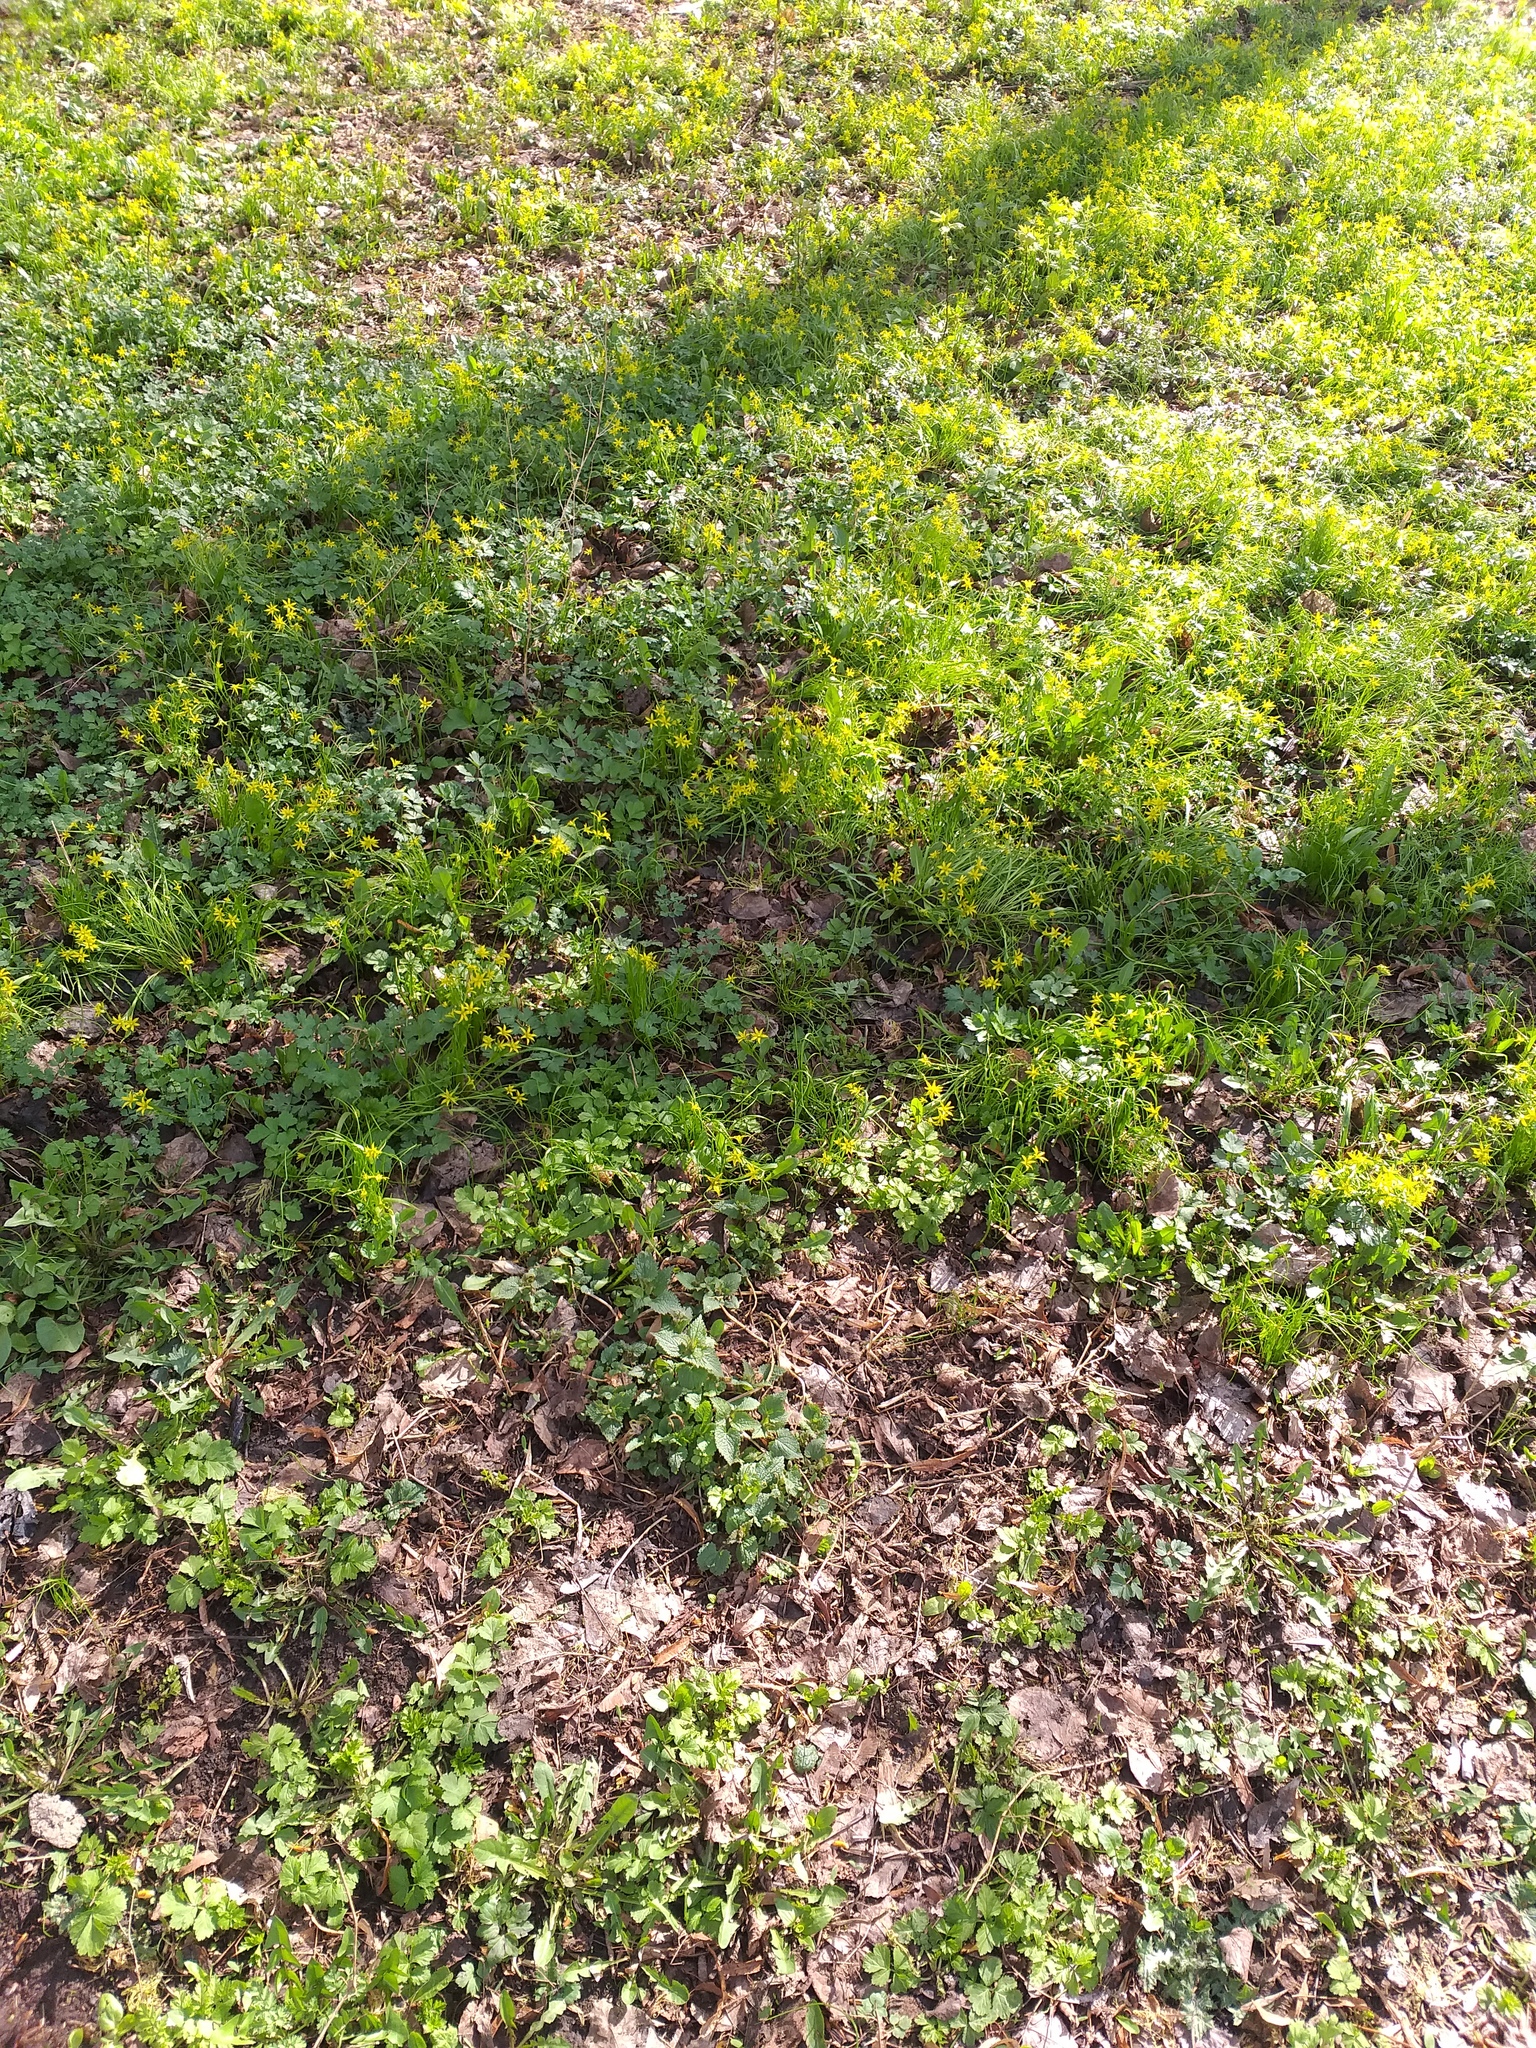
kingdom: Plantae
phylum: Tracheophyta
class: Liliopsida
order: Liliales
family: Liliaceae
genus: Gagea
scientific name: Gagea minima
